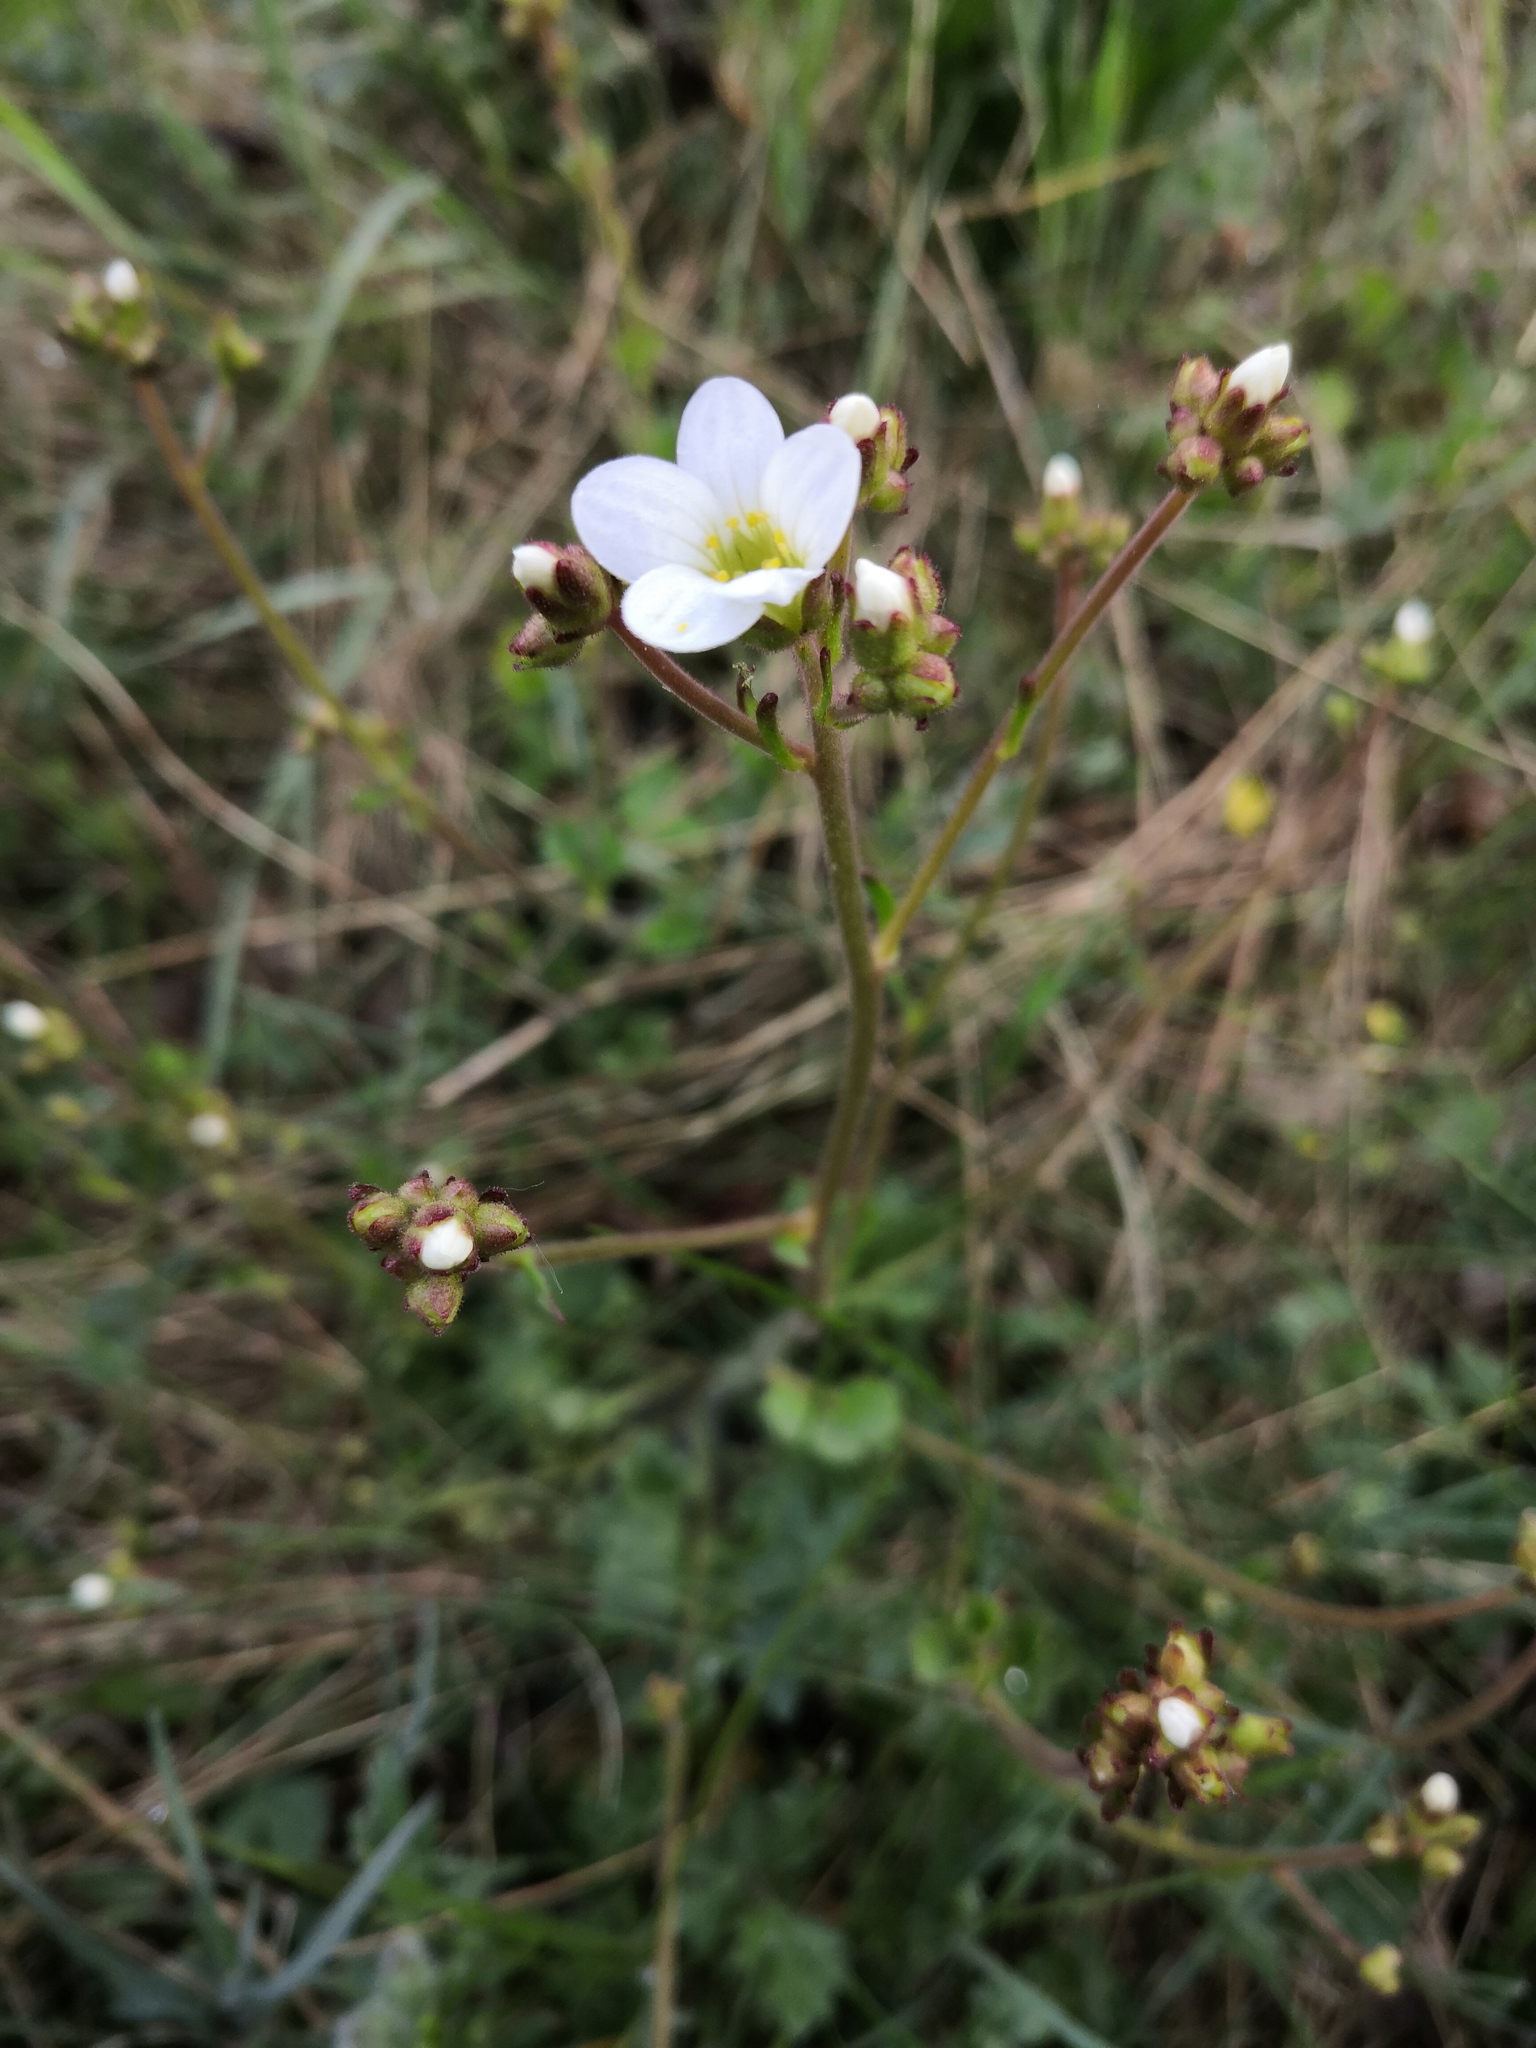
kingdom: Plantae
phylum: Tracheophyta
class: Magnoliopsida
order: Saxifragales
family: Saxifragaceae
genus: Saxifraga
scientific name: Saxifraga granulata
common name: Meadow saxifrage
